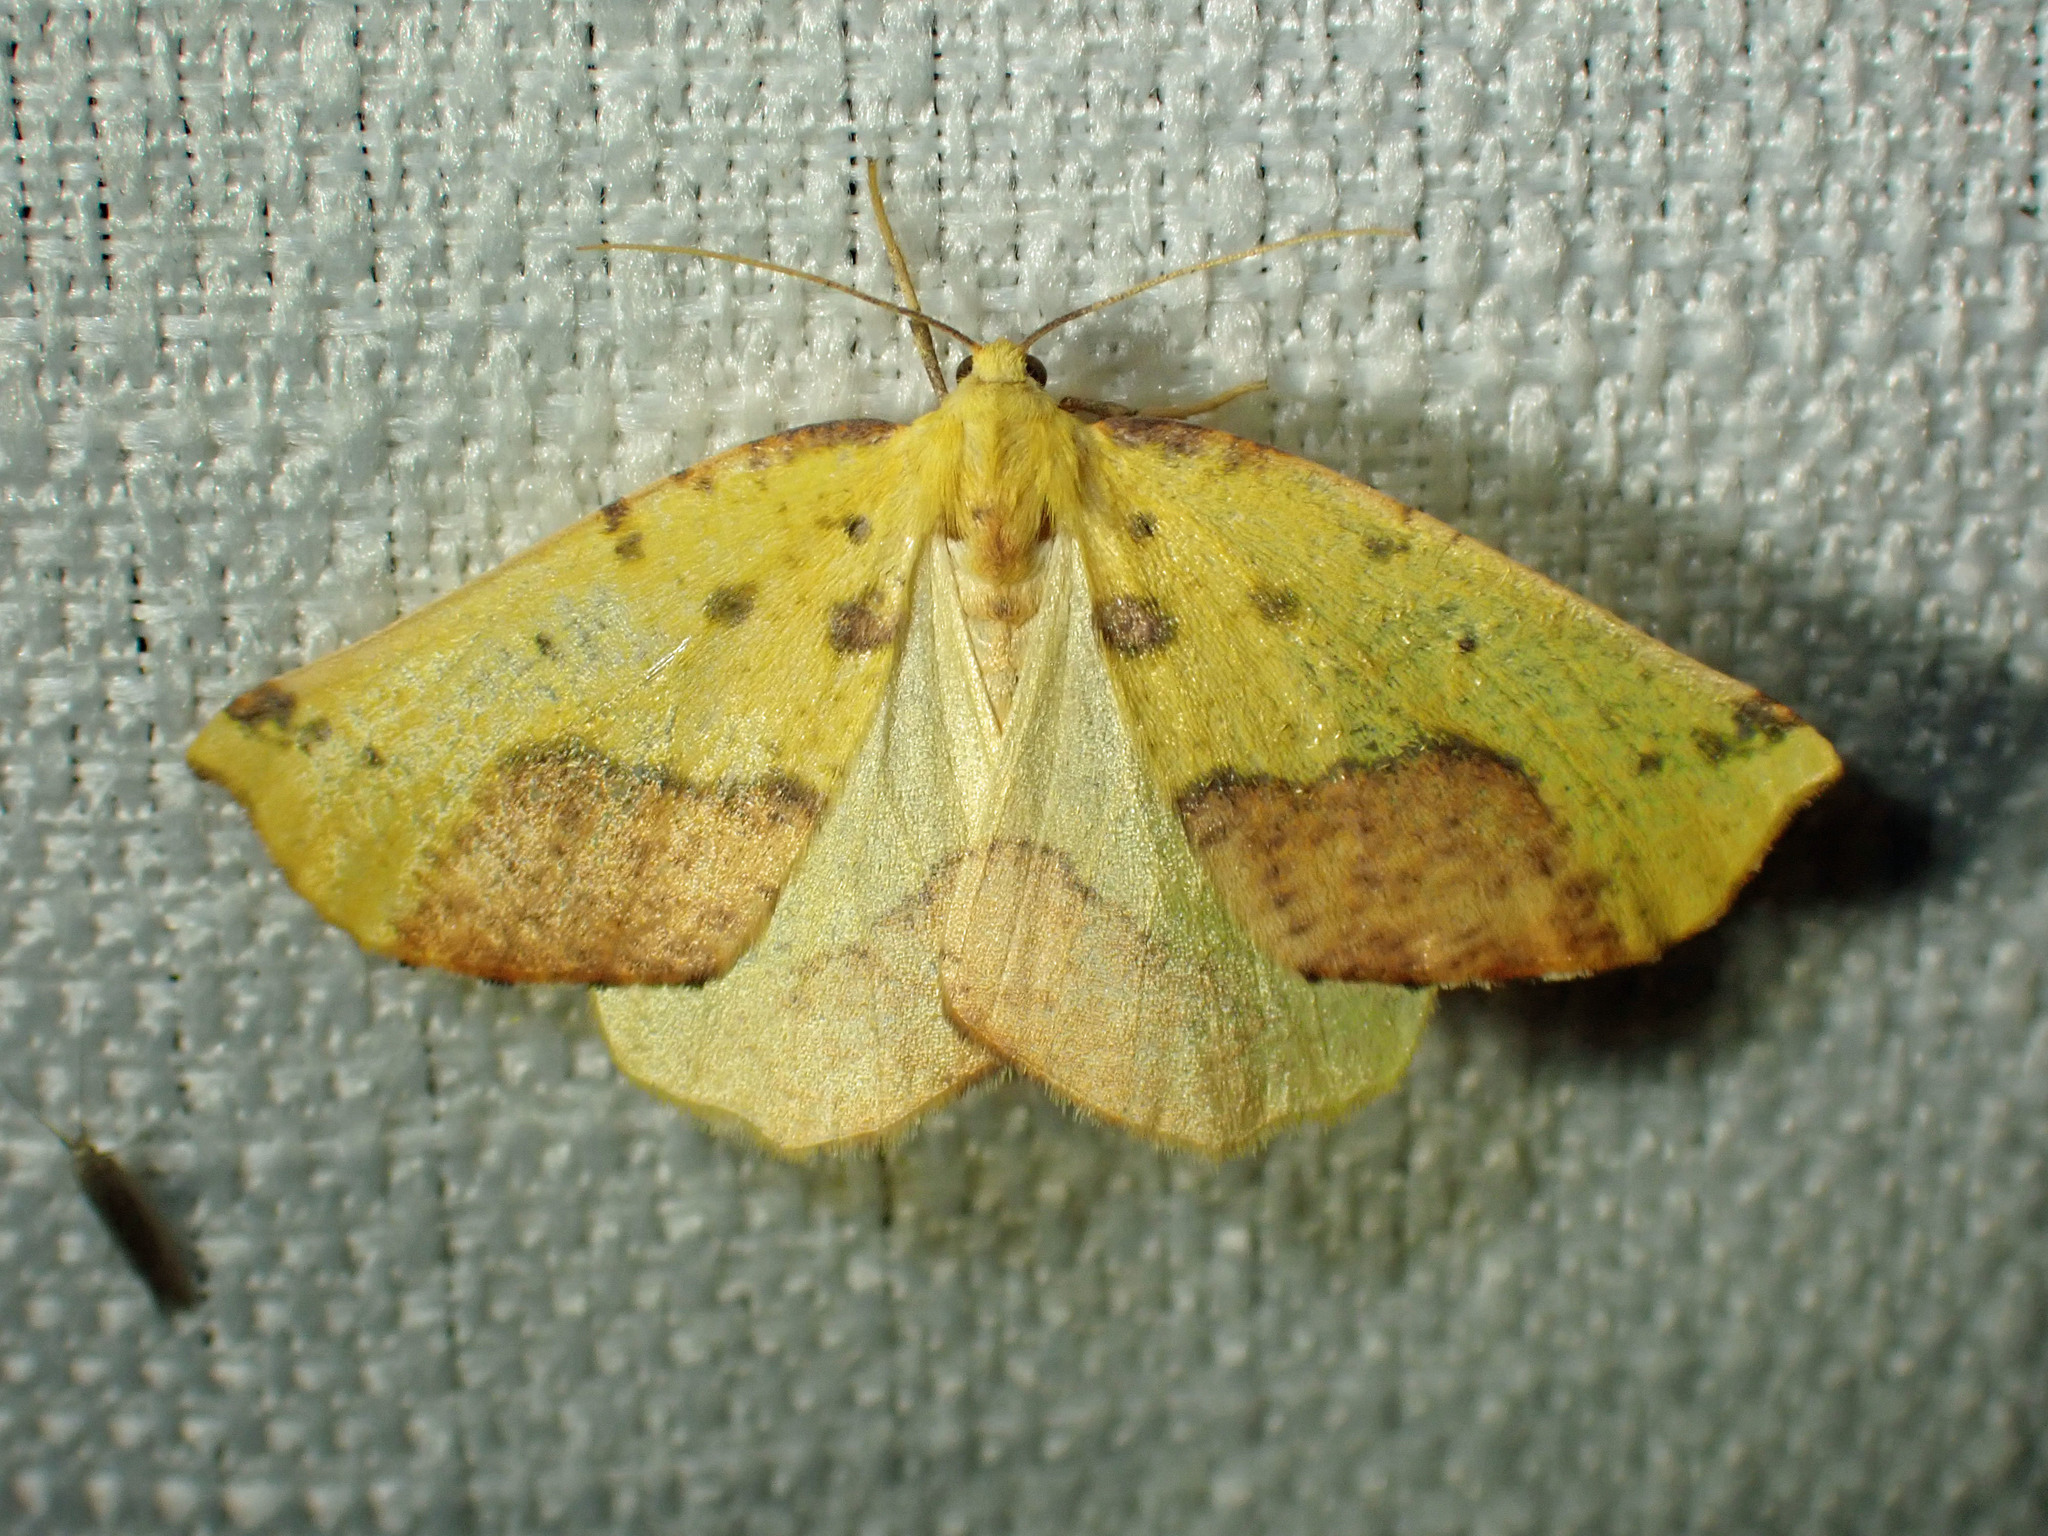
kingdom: Animalia
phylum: Arthropoda
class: Insecta
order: Lepidoptera
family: Geometridae
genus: Sicya
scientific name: Sicya macularia
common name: Sharp-lined yellow
